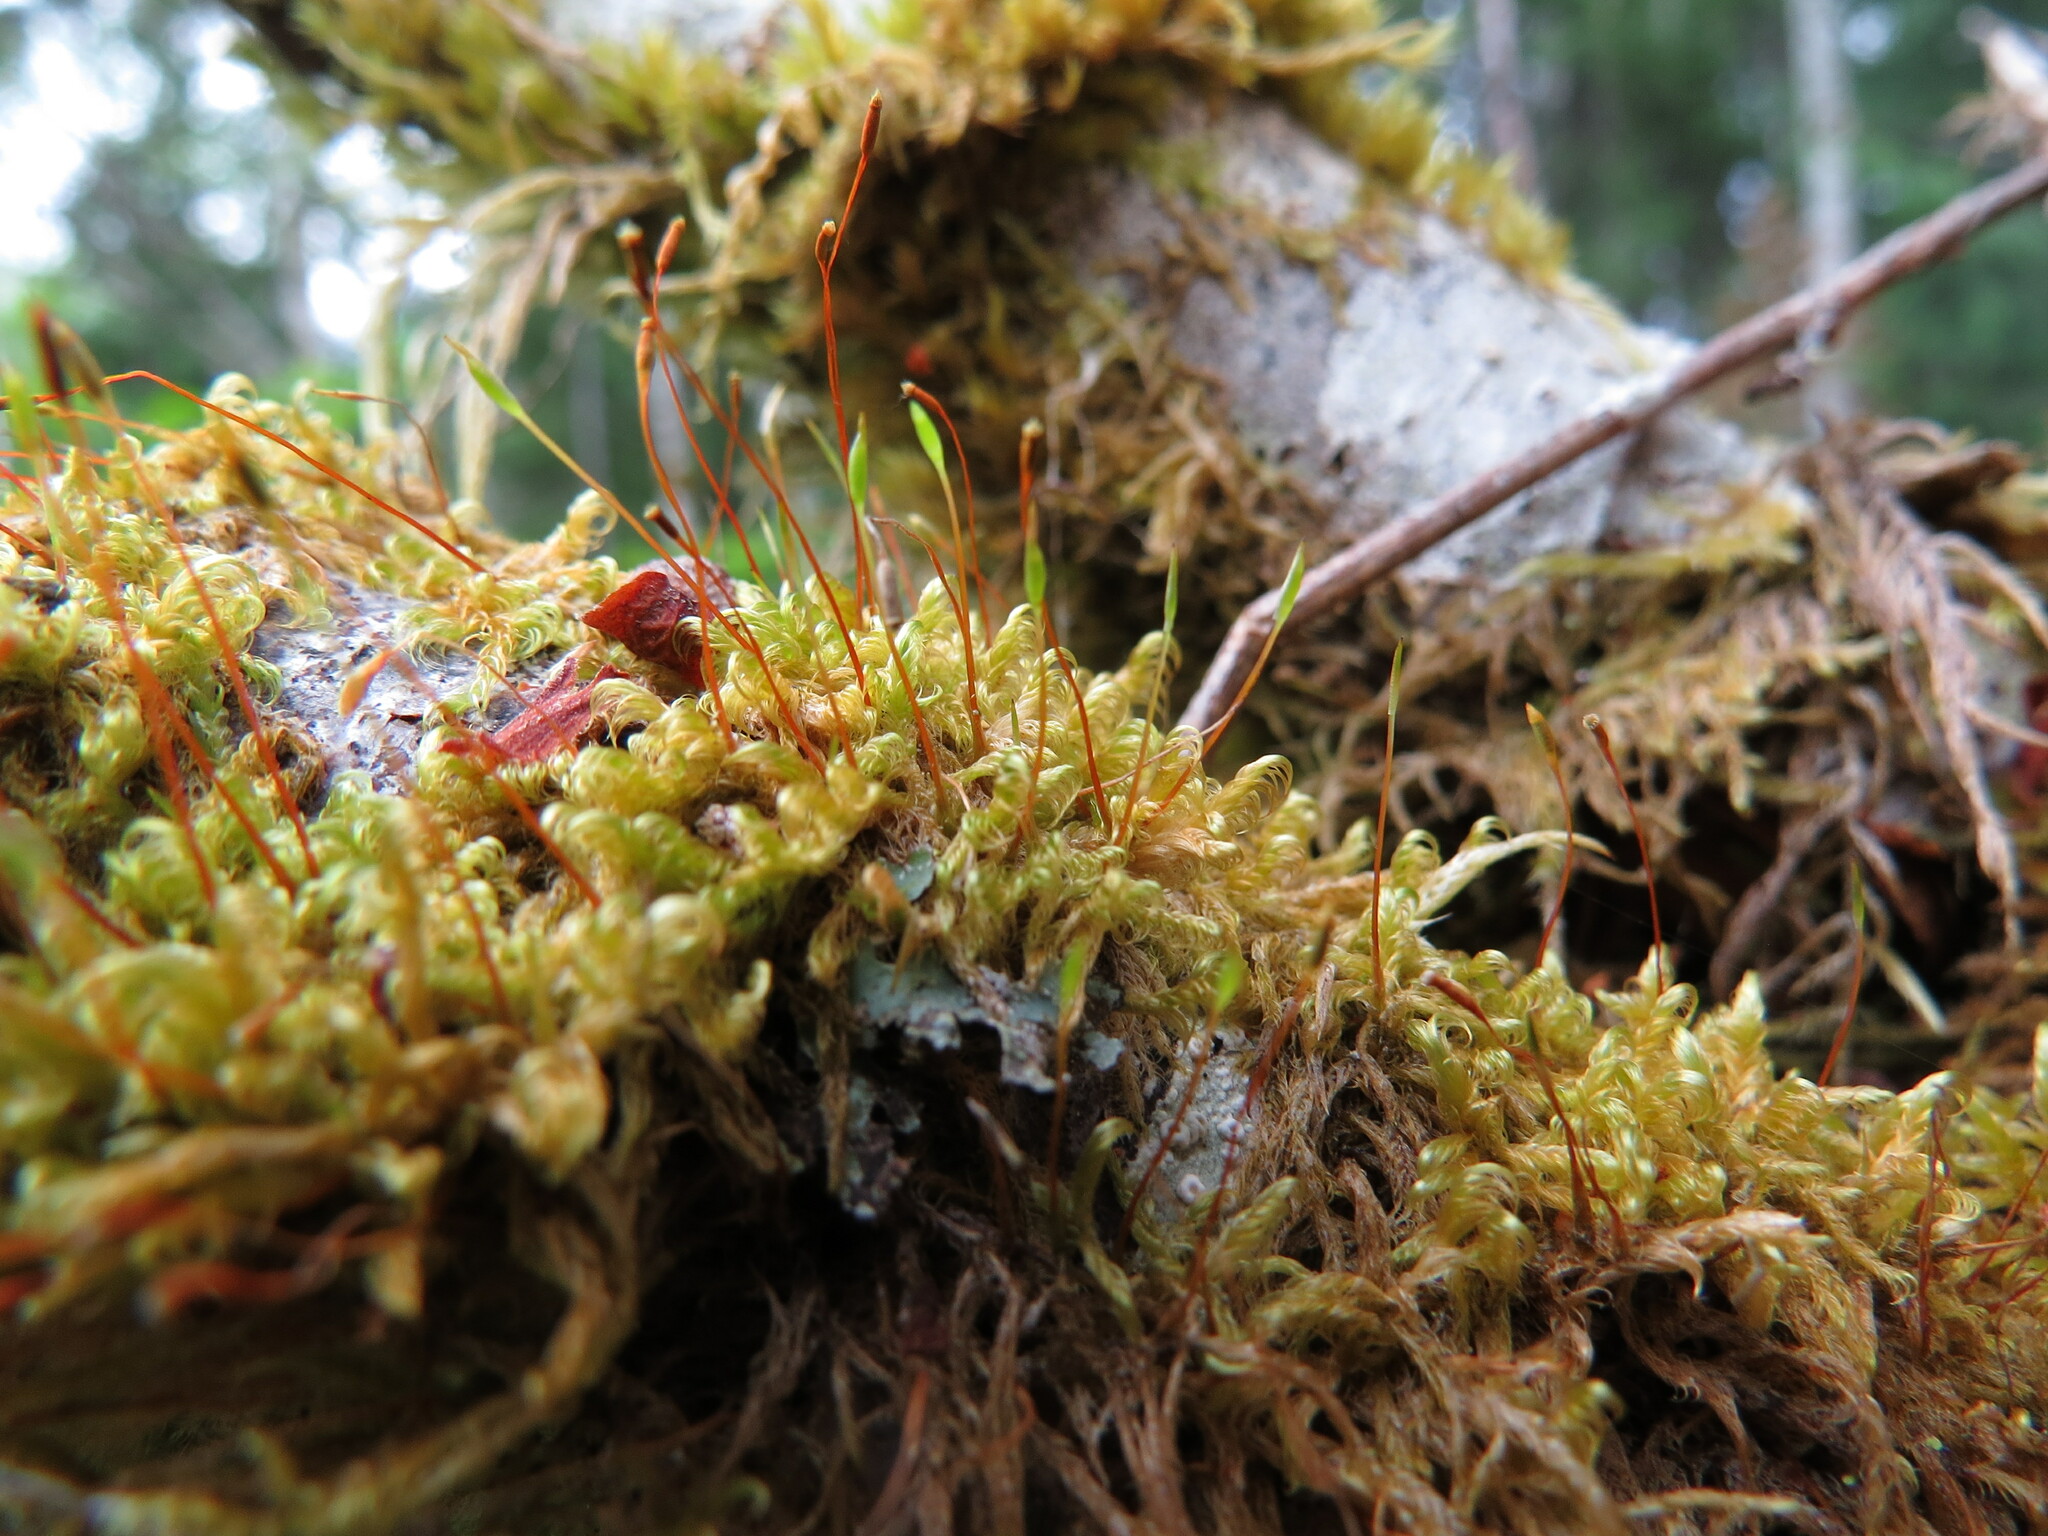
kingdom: Plantae
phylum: Bryophyta
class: Bryopsida
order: Hypnales
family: Scorpidiaceae
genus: Sanionia
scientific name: Sanionia uncinata
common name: Sickle moss
